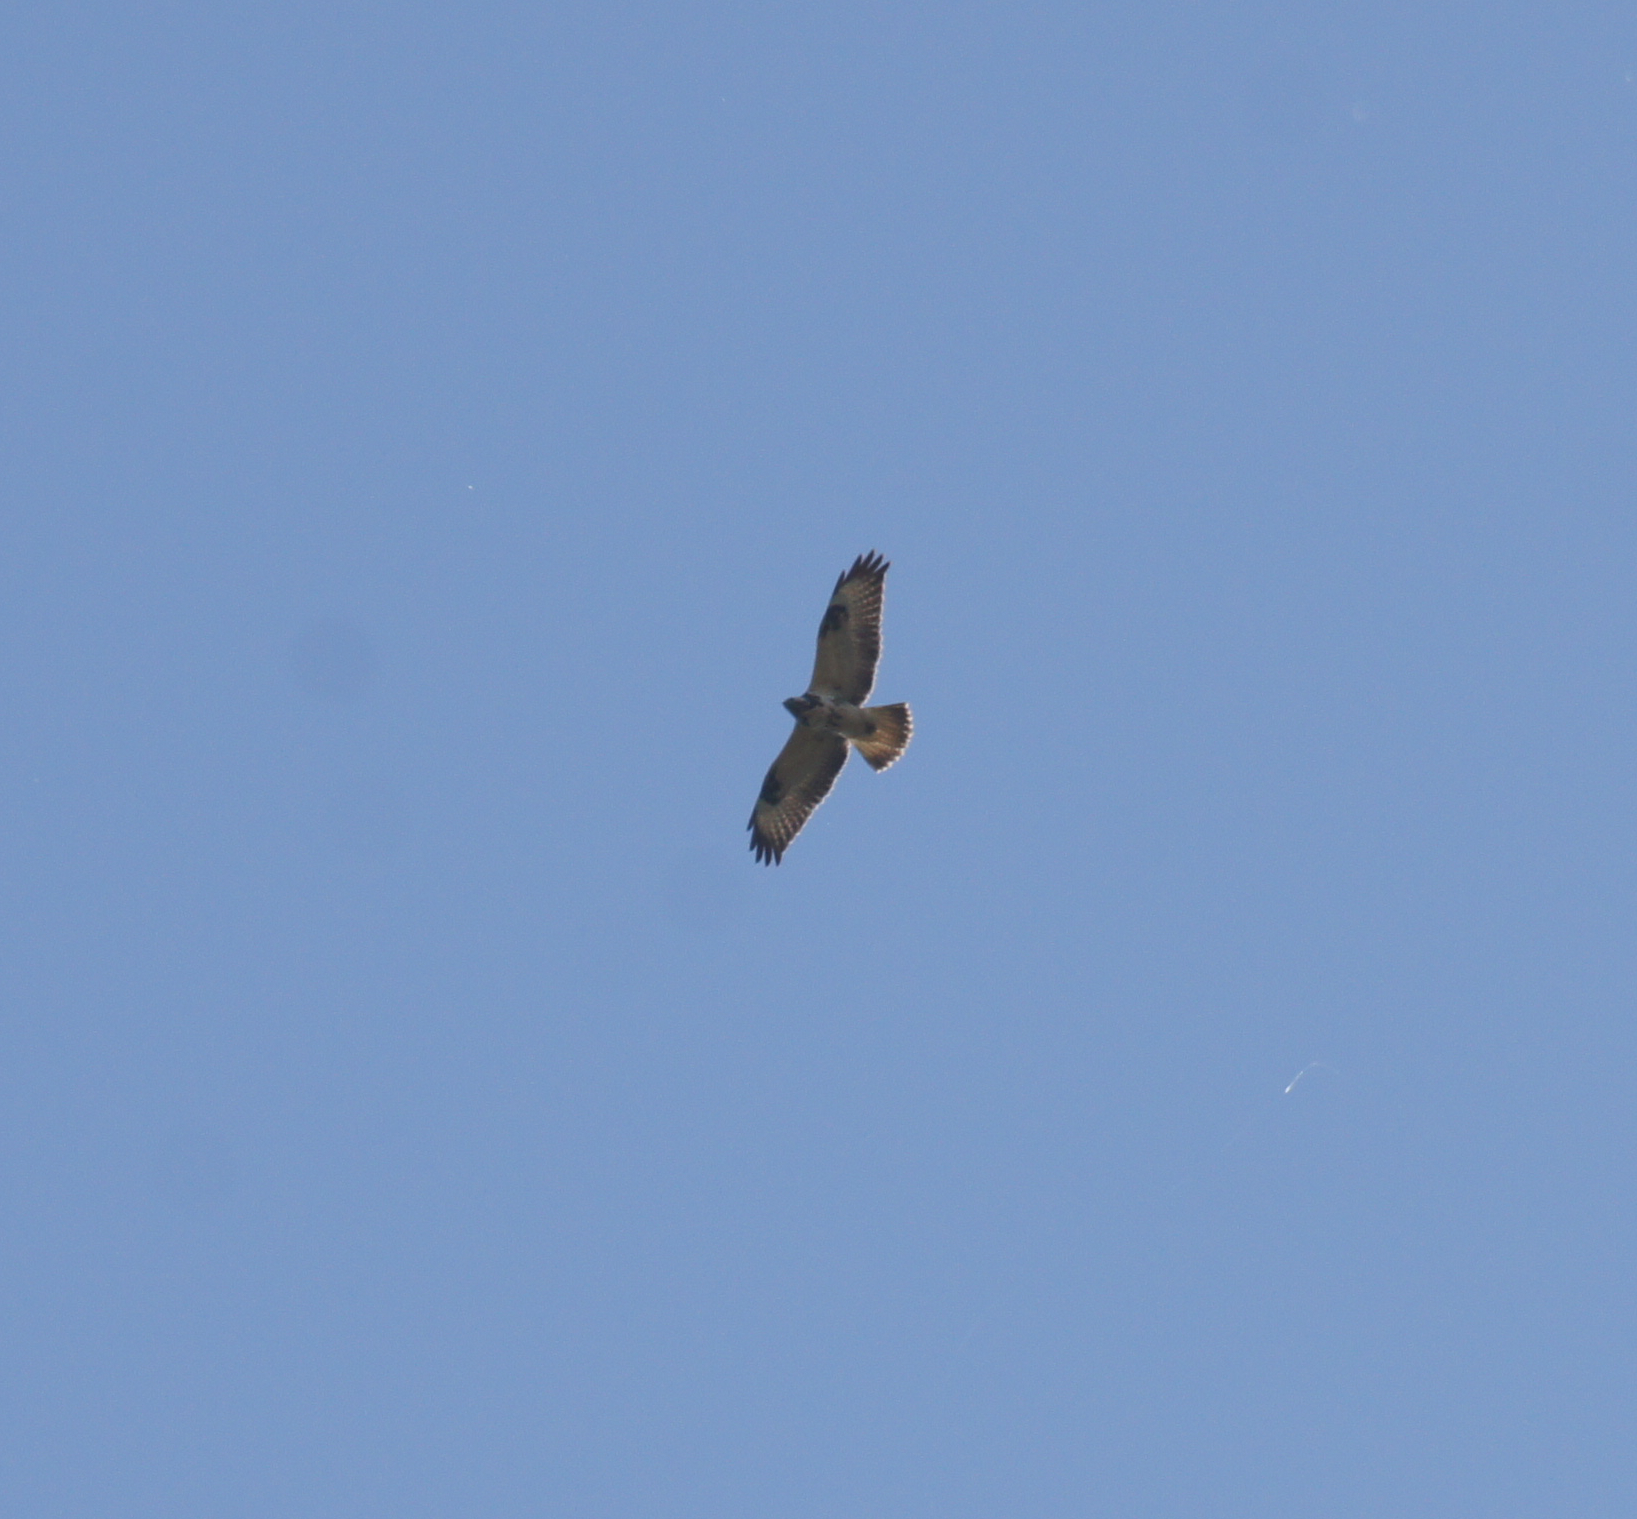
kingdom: Animalia
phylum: Chordata
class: Aves
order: Accipitriformes
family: Accipitridae
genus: Buteo
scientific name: Buteo buteo
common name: Common buzzard
